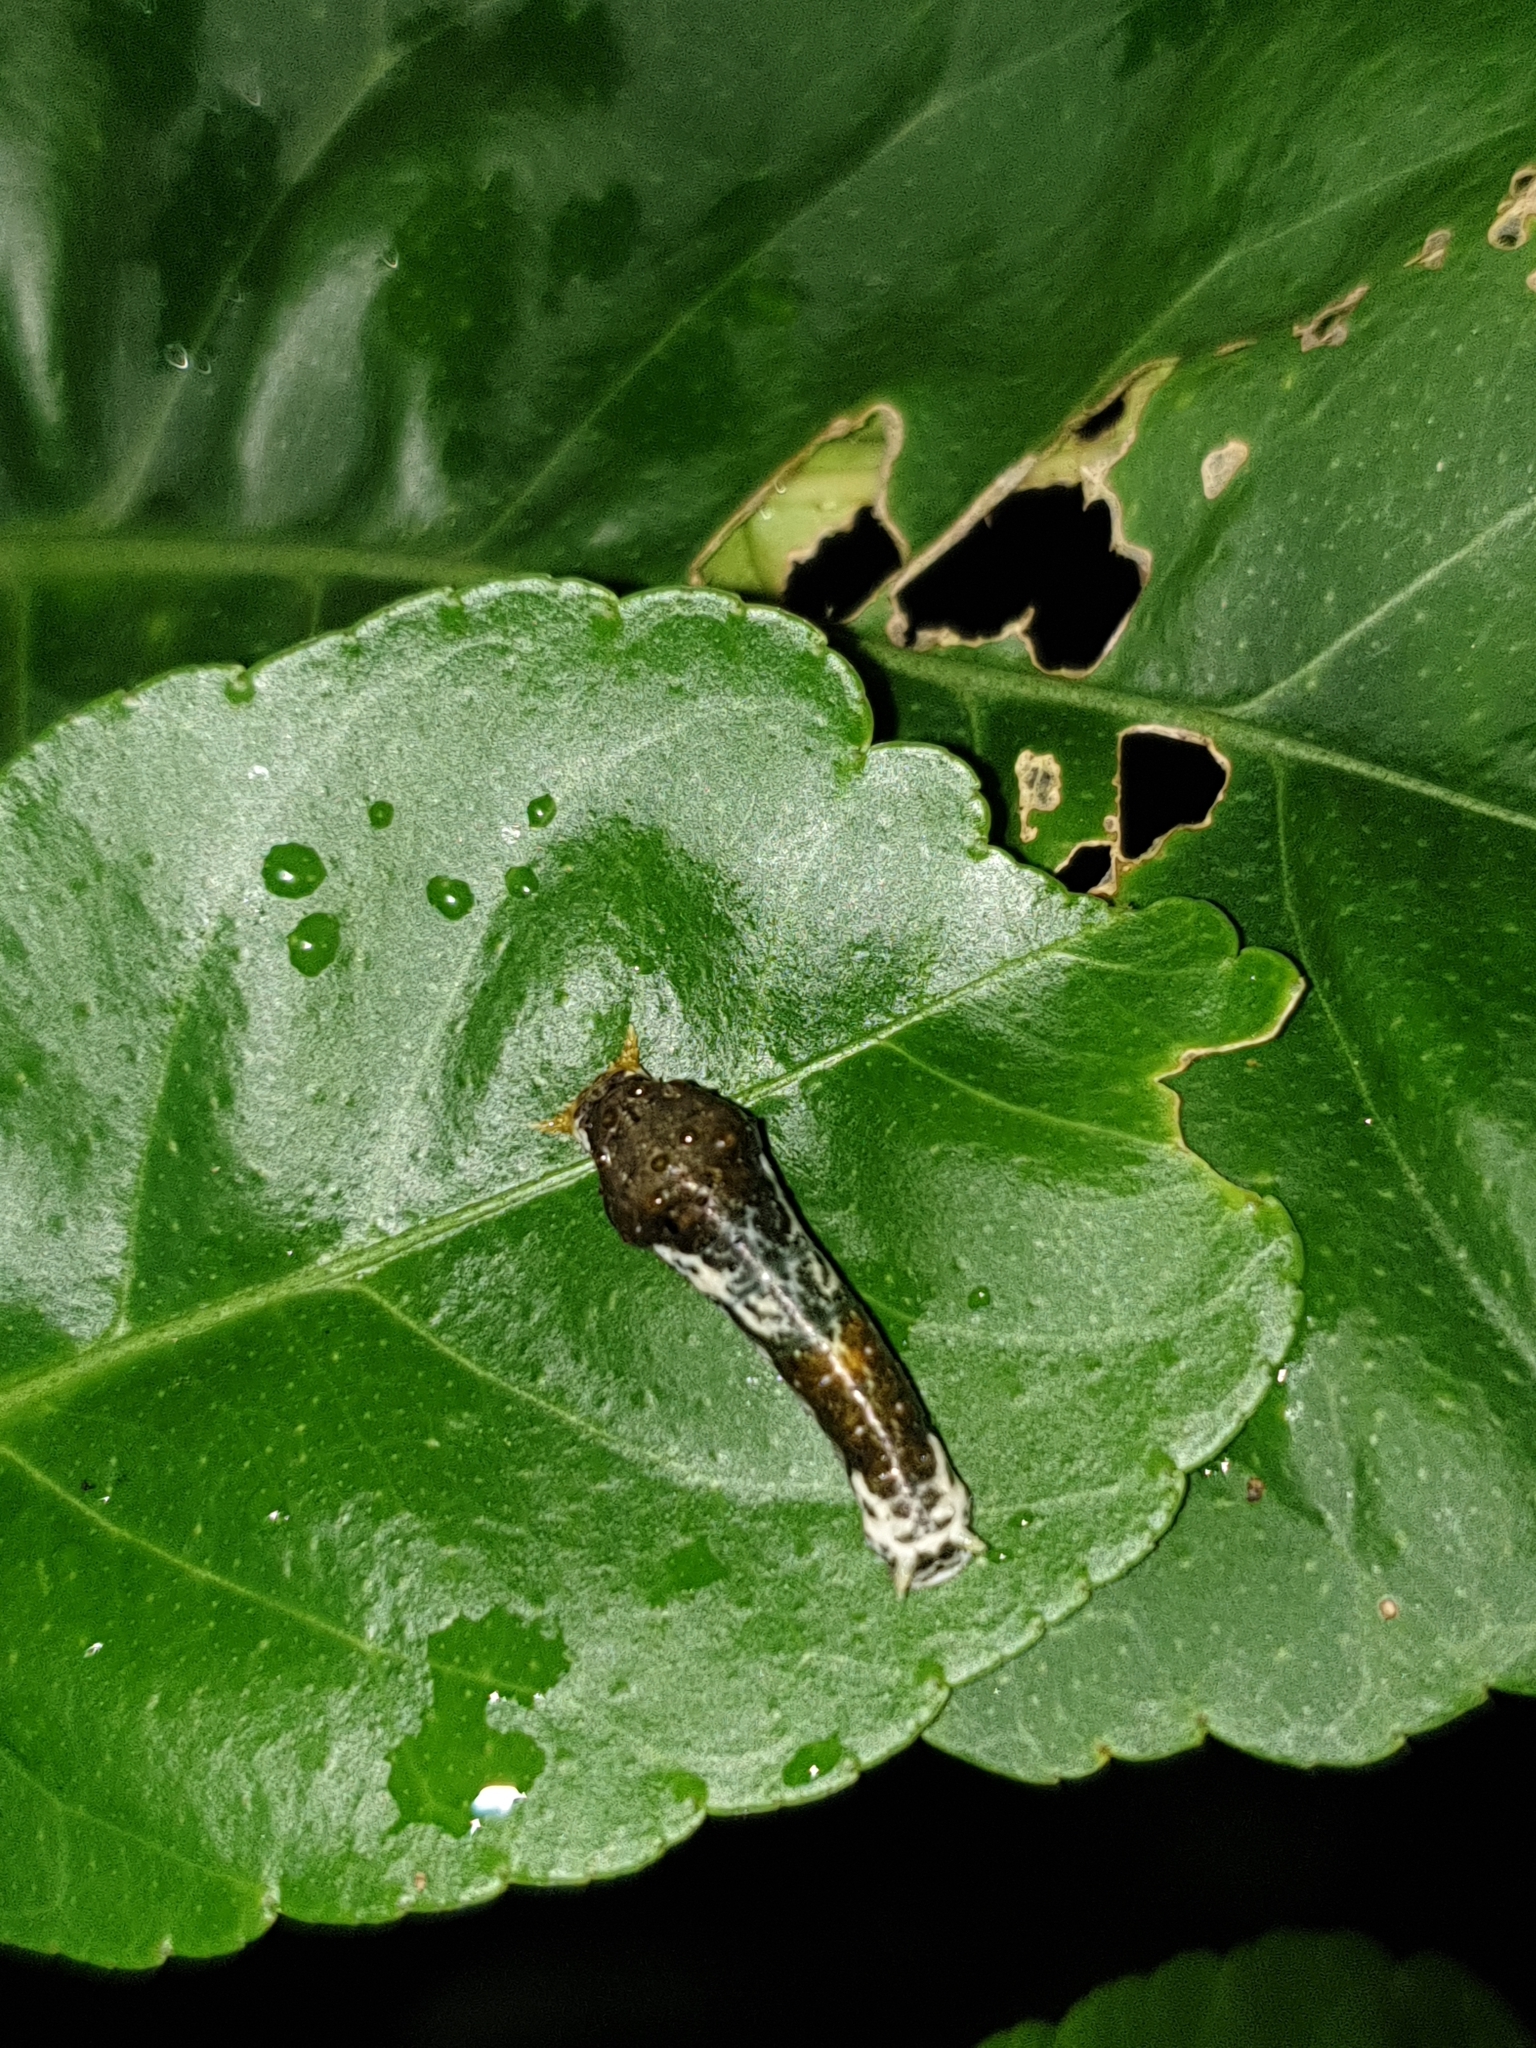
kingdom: Animalia
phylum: Arthropoda
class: Insecta
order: Lepidoptera
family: Papilionidae
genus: Papilio
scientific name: Papilio polytes
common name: Common mormon
